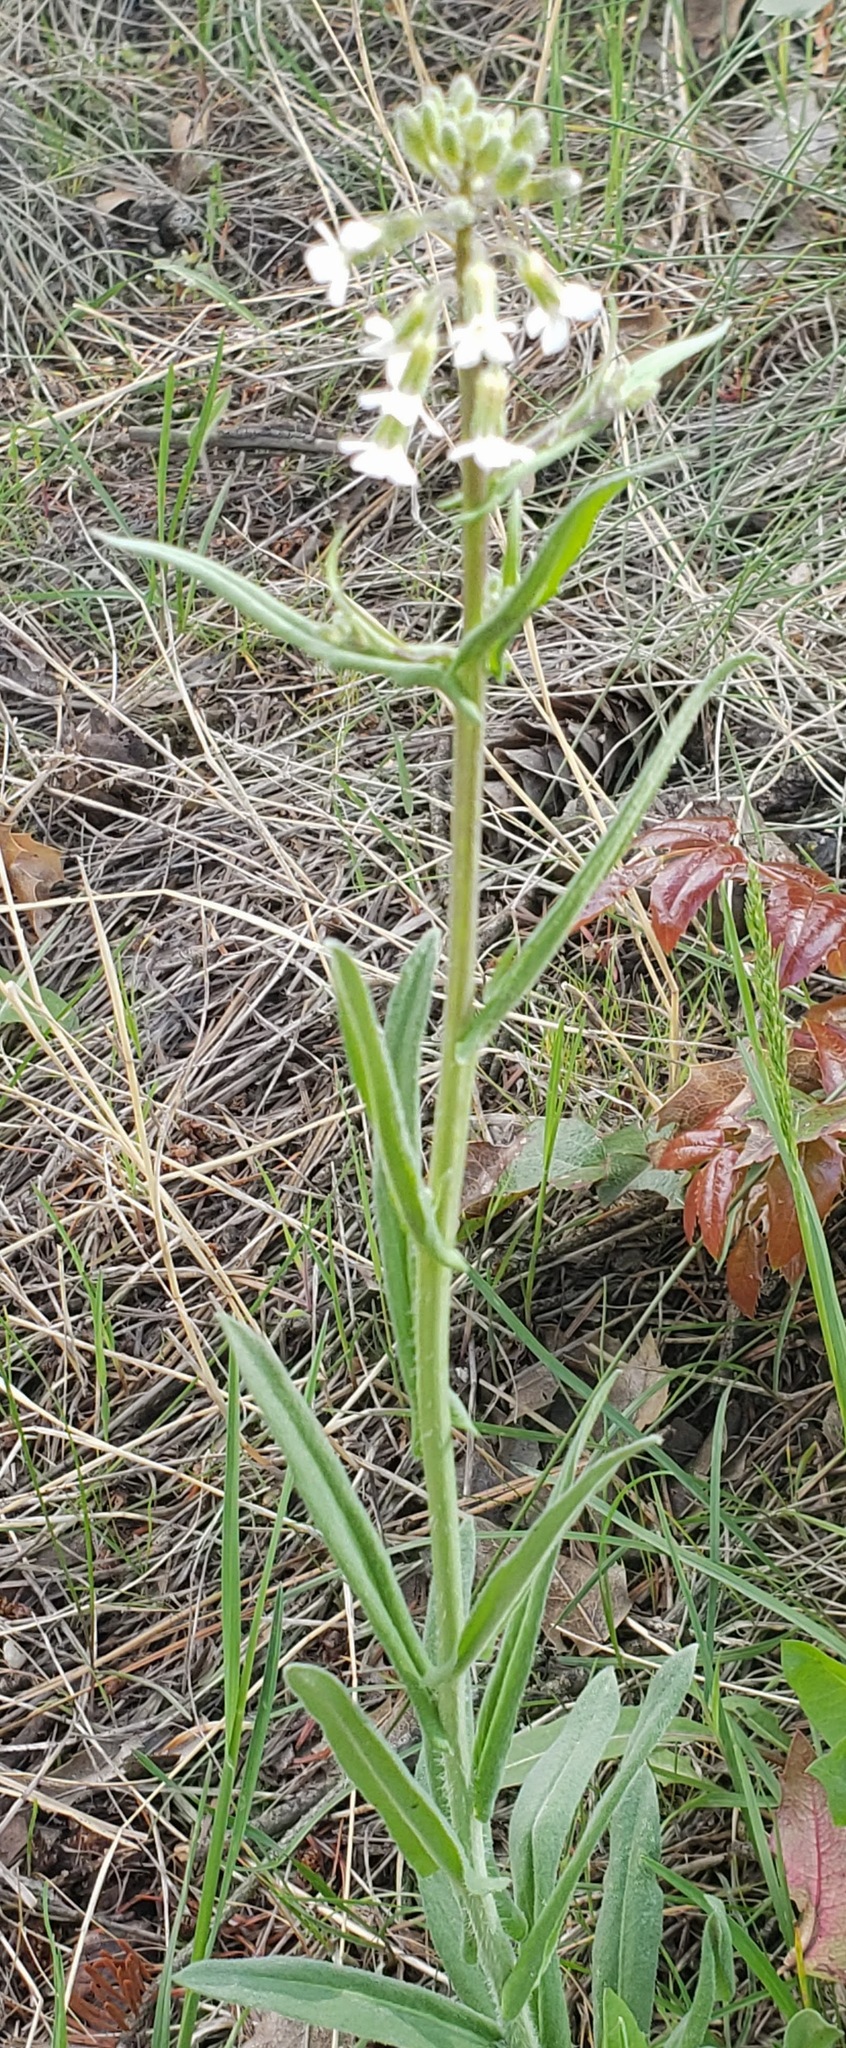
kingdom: Plantae
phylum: Tracheophyta
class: Magnoliopsida
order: Brassicales
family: Brassicaceae
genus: Boechera
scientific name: Boechera retrofracta
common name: Dangling suncress
